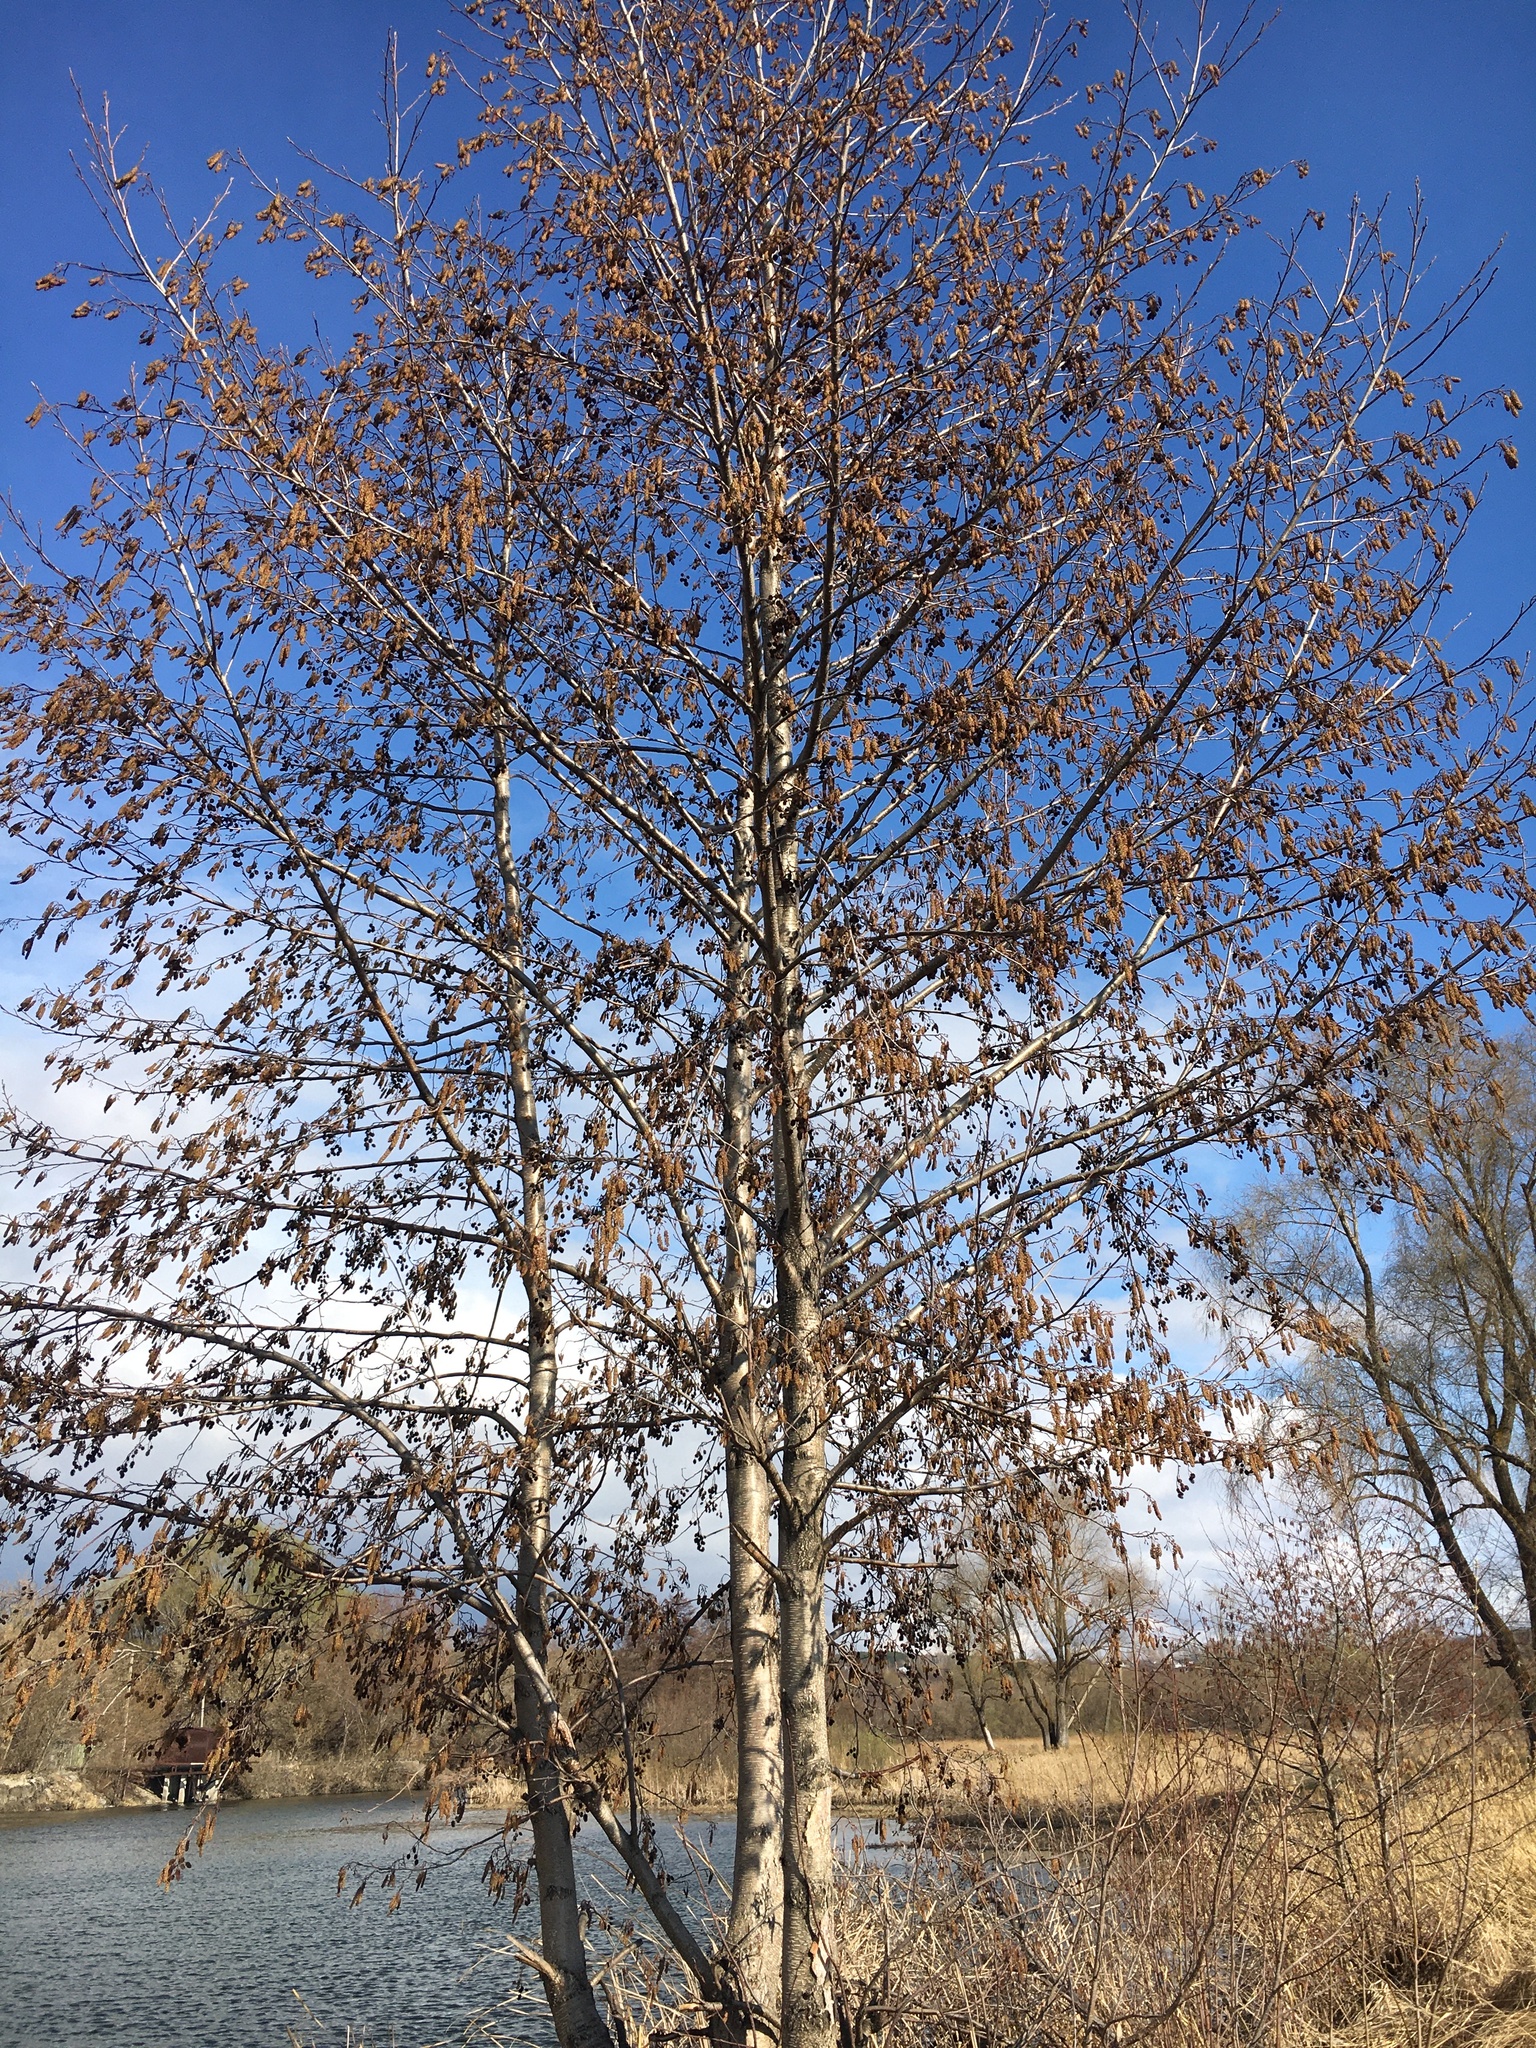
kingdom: Plantae
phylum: Tracheophyta
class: Magnoliopsida
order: Fagales
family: Betulaceae
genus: Alnus
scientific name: Alnus glutinosa
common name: Black alder
